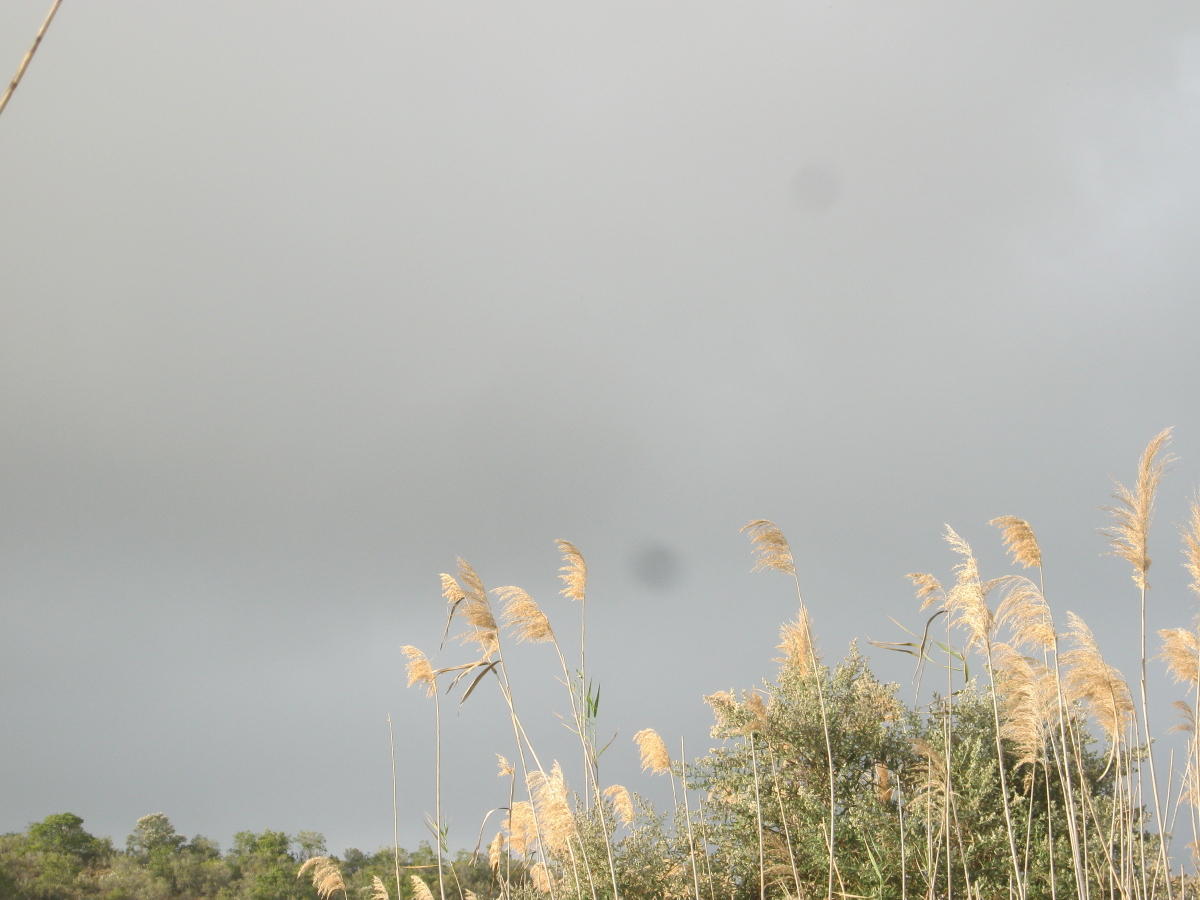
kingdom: Plantae
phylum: Tracheophyta
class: Liliopsida
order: Poales
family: Poaceae
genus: Phragmites
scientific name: Phragmites australis
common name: Common reed
